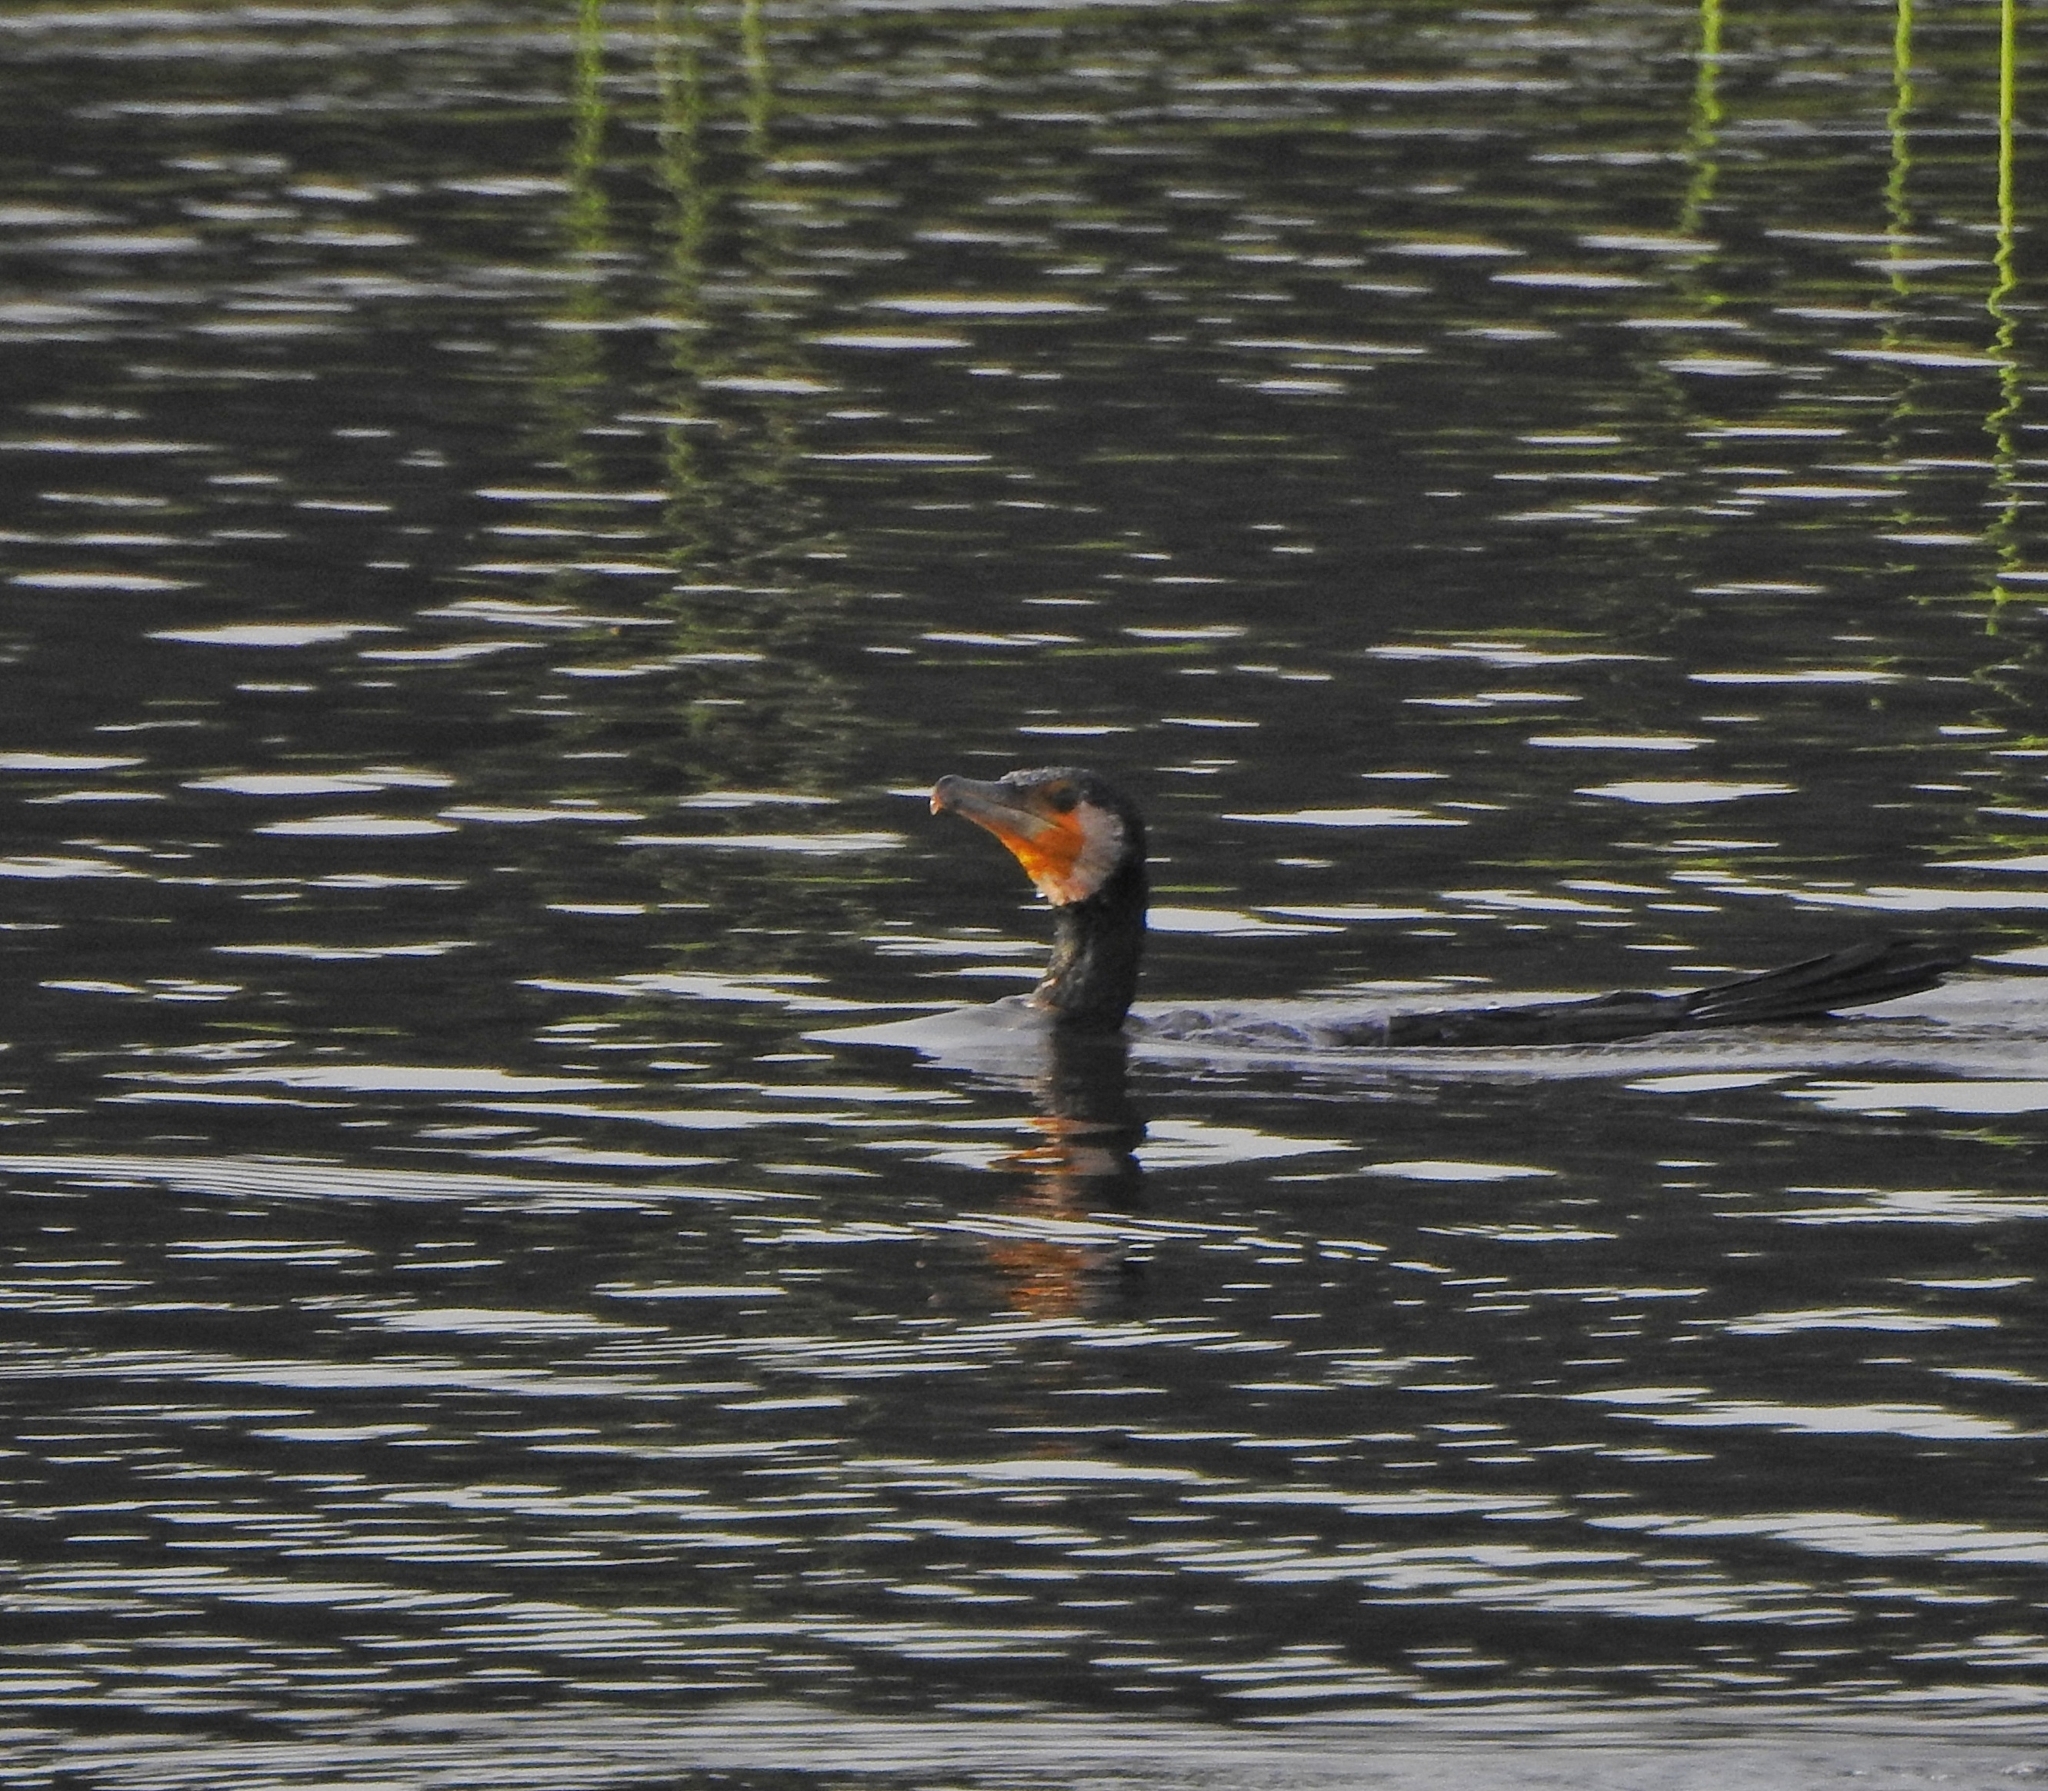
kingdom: Animalia
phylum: Chordata
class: Aves
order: Suliformes
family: Phalacrocoracidae
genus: Phalacrocorax
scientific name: Phalacrocorax carbo
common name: Great cormorant
